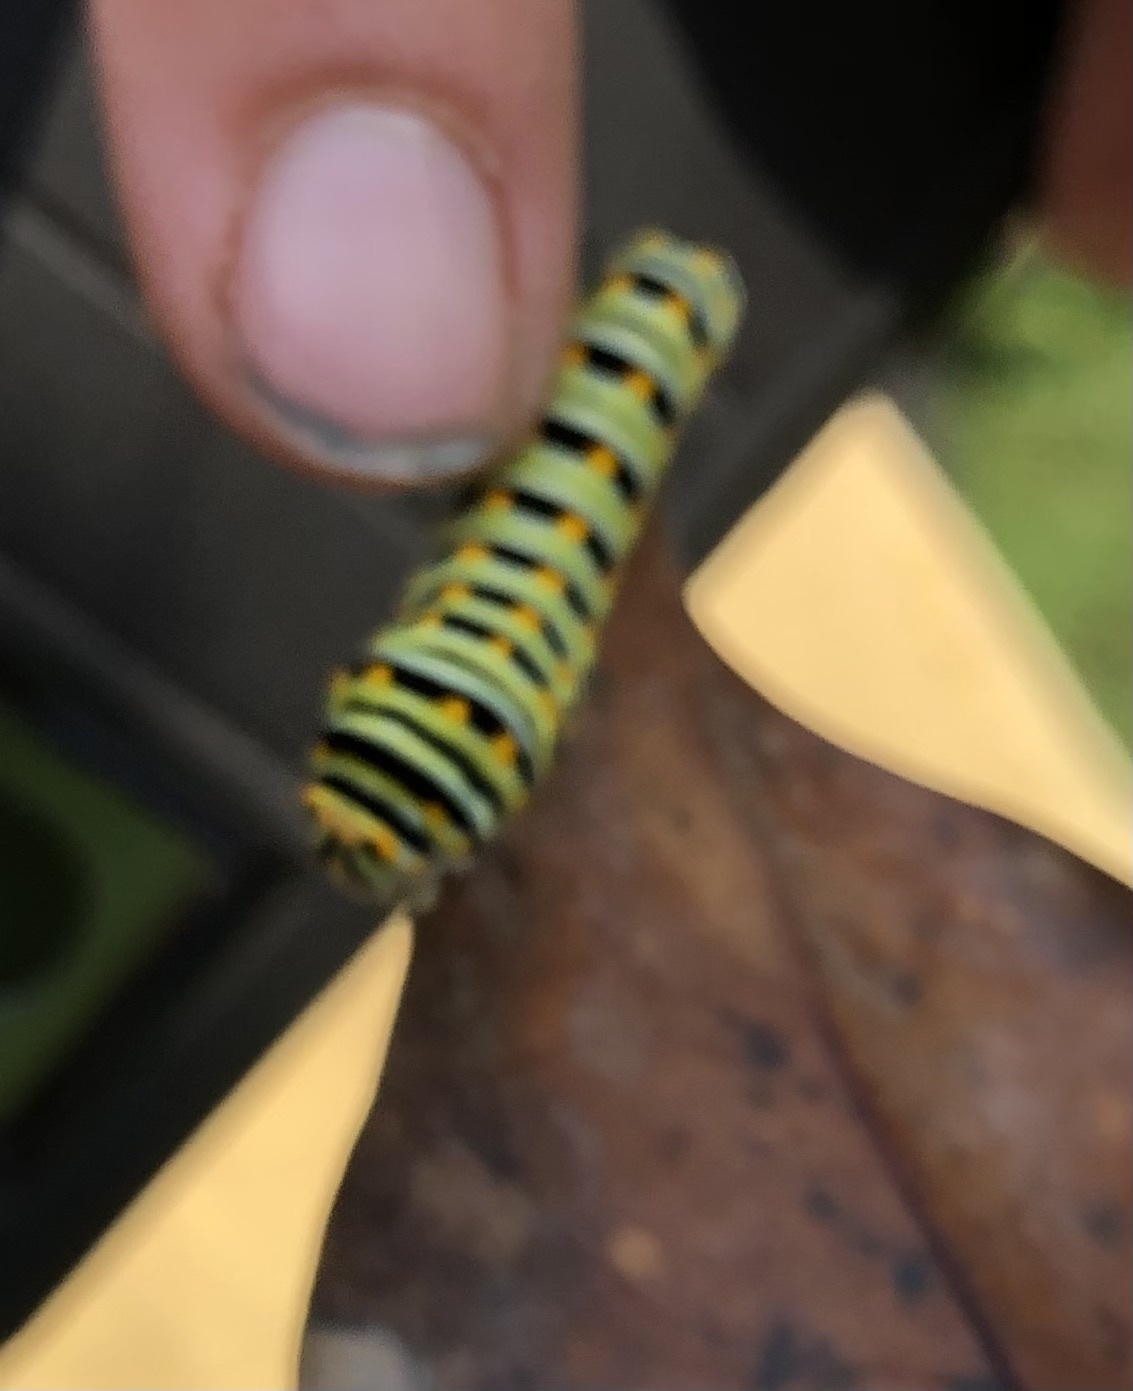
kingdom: Animalia
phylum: Arthropoda
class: Insecta
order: Lepidoptera
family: Papilionidae
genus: Papilio
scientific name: Papilio polyxenes
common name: Black swallowtail
